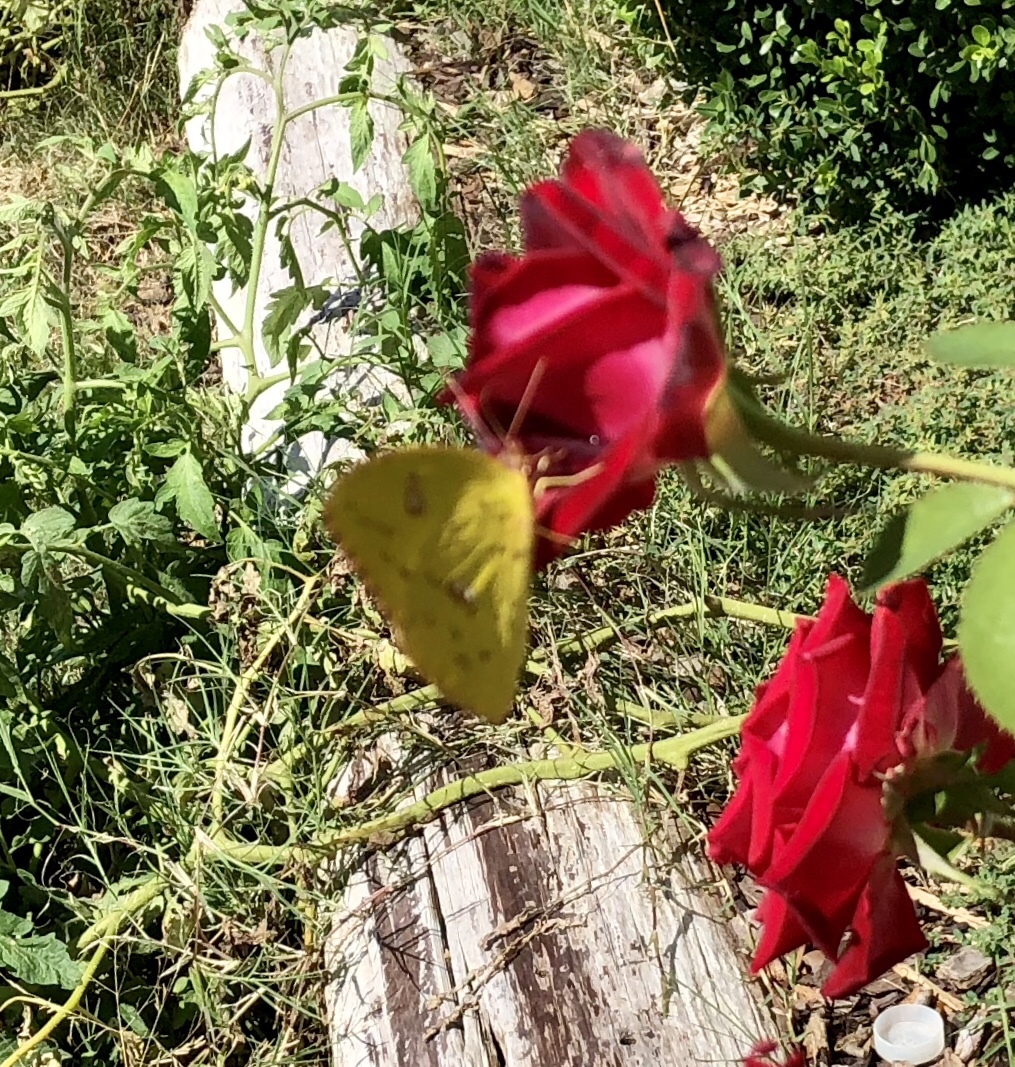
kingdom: Animalia
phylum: Arthropoda
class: Insecta
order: Lepidoptera
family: Pieridae
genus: Phoebis
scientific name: Phoebis sennae
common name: Cloudless sulphur
